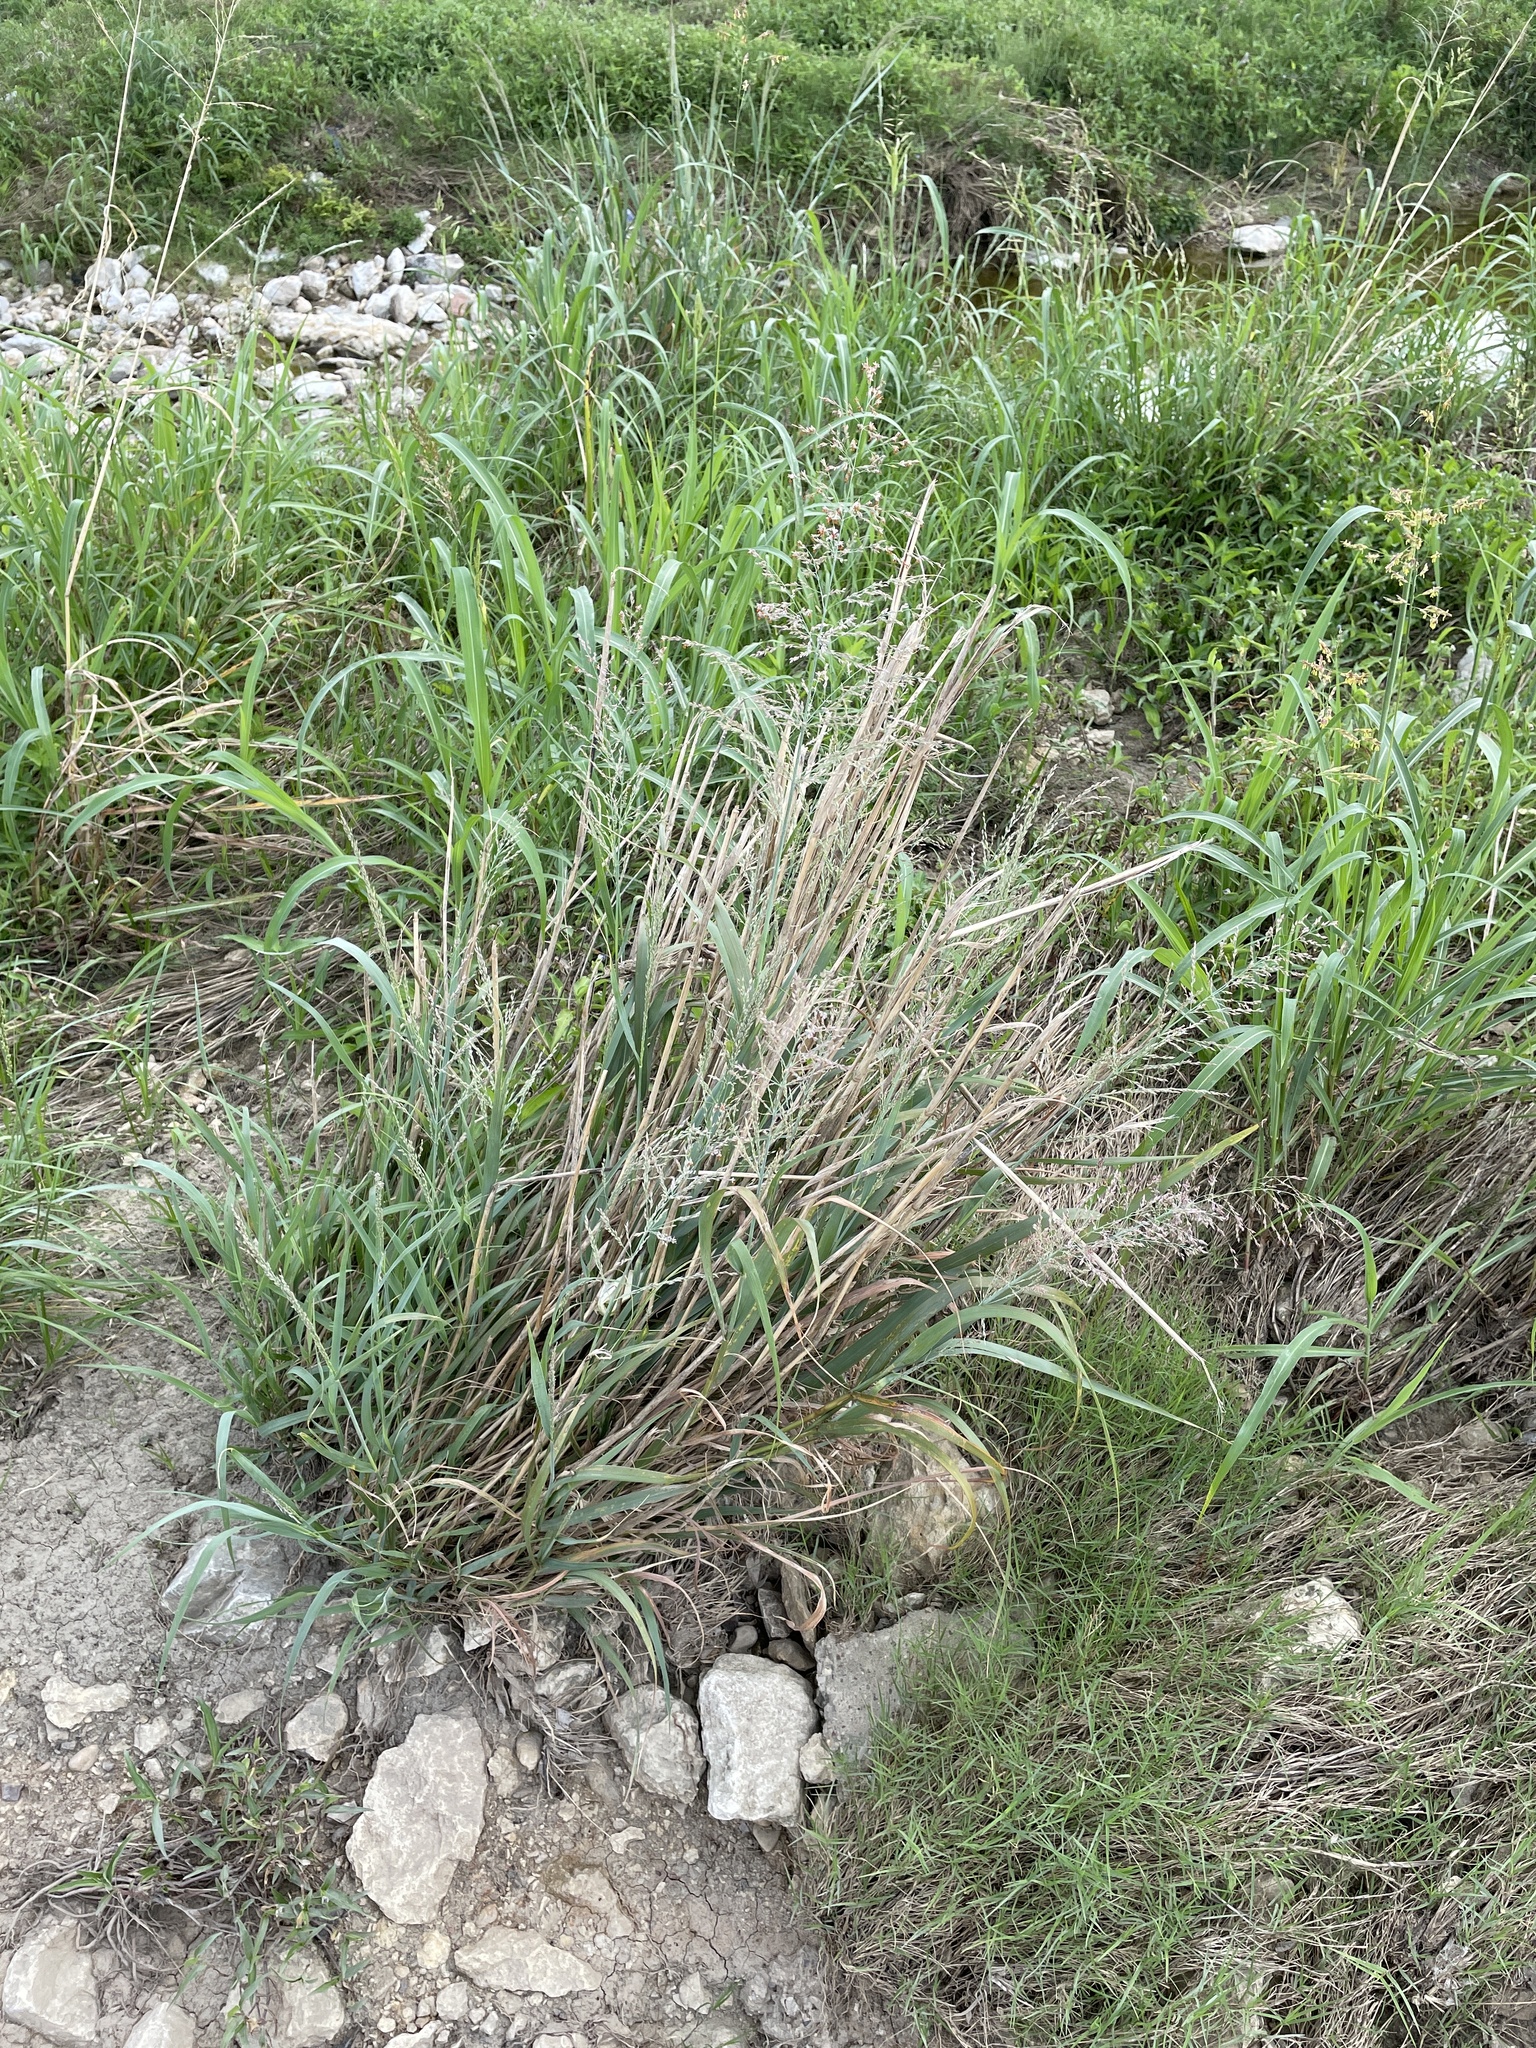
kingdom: Plantae
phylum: Tracheophyta
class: Liliopsida
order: Poales
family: Poaceae
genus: Panicum
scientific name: Panicum virgatum
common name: Switchgrass
